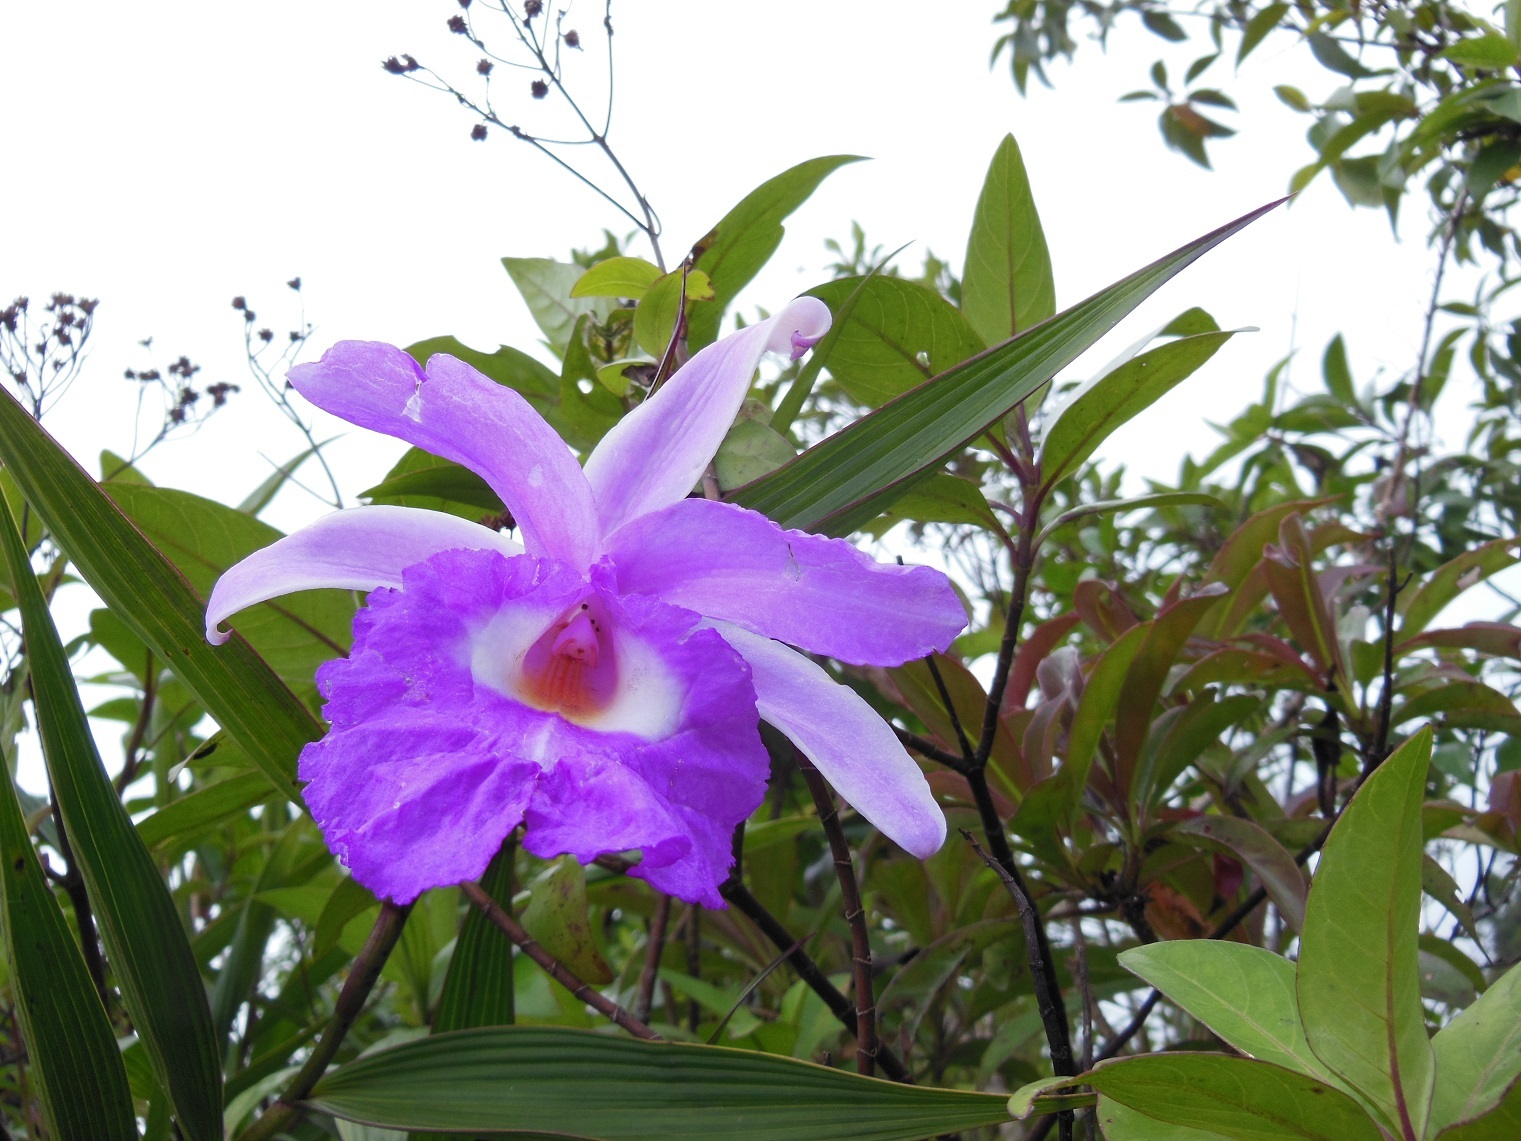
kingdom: Plantae
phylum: Tracheophyta
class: Liliopsida
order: Asparagales
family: Orchidaceae
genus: Sobralia
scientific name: Sobralia macrantha
